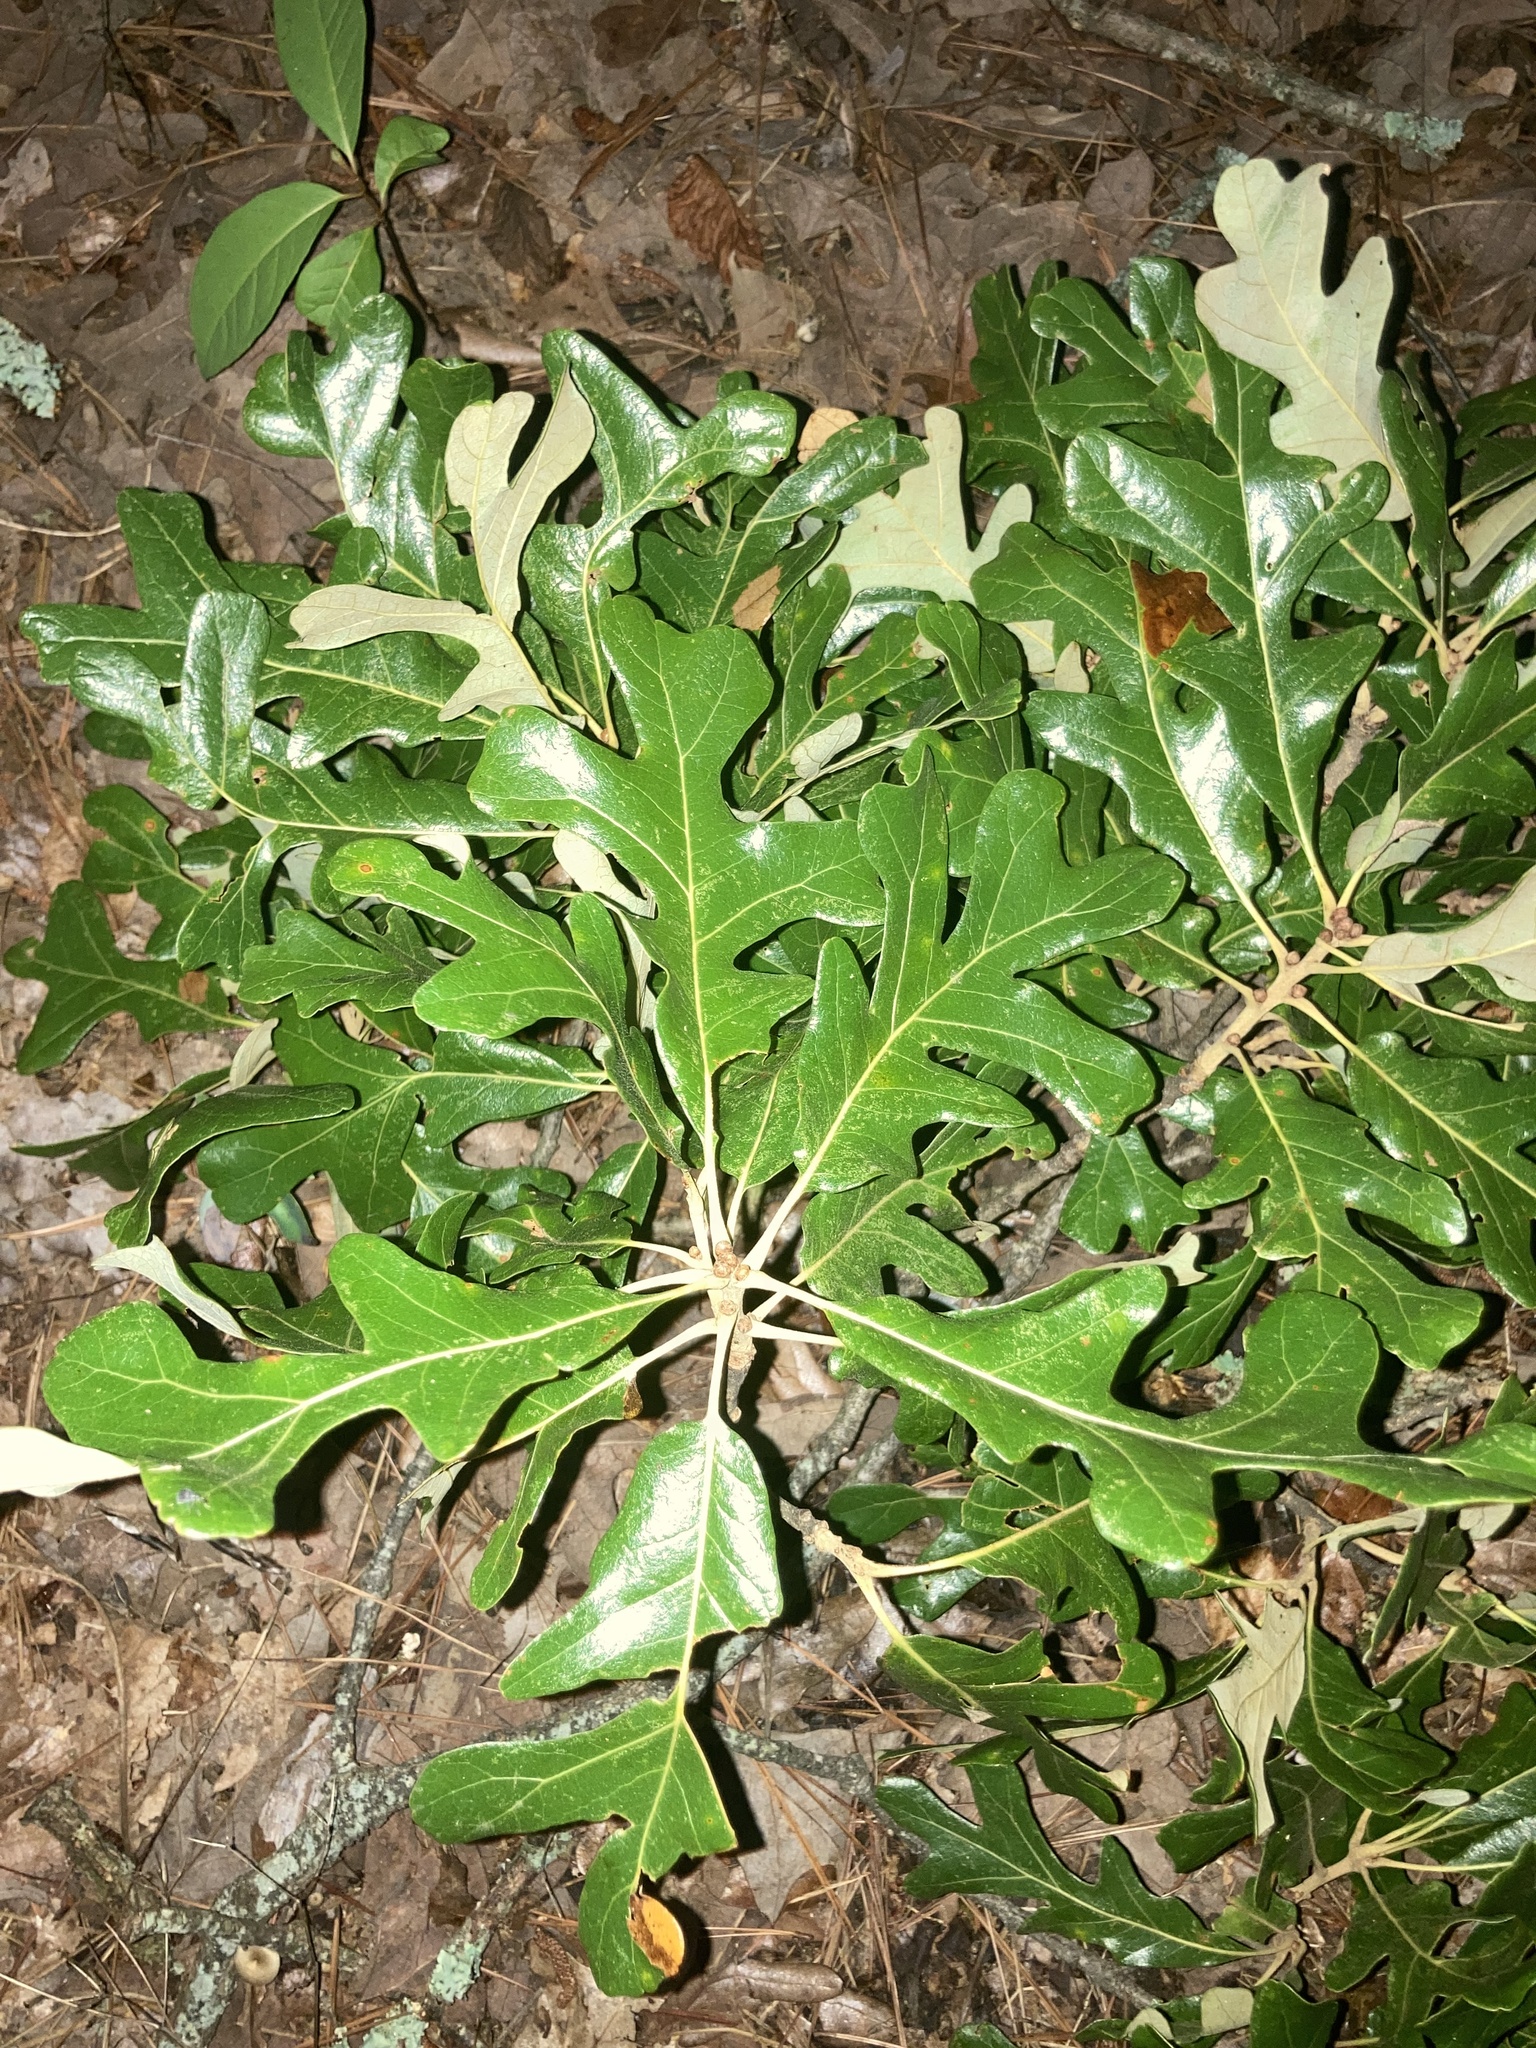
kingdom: Plantae
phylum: Tracheophyta
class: Magnoliopsida
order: Fagales
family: Fagaceae
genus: Quercus
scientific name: Quercus stellata
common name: Post oak
